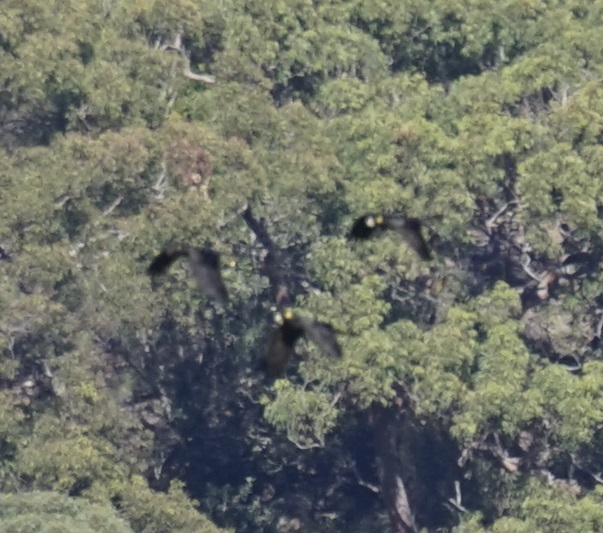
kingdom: Animalia
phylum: Chordata
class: Aves
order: Psittaciformes
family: Cacatuidae
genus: Zanda
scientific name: Zanda funerea
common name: Yellow-tailed black-cockatoo
